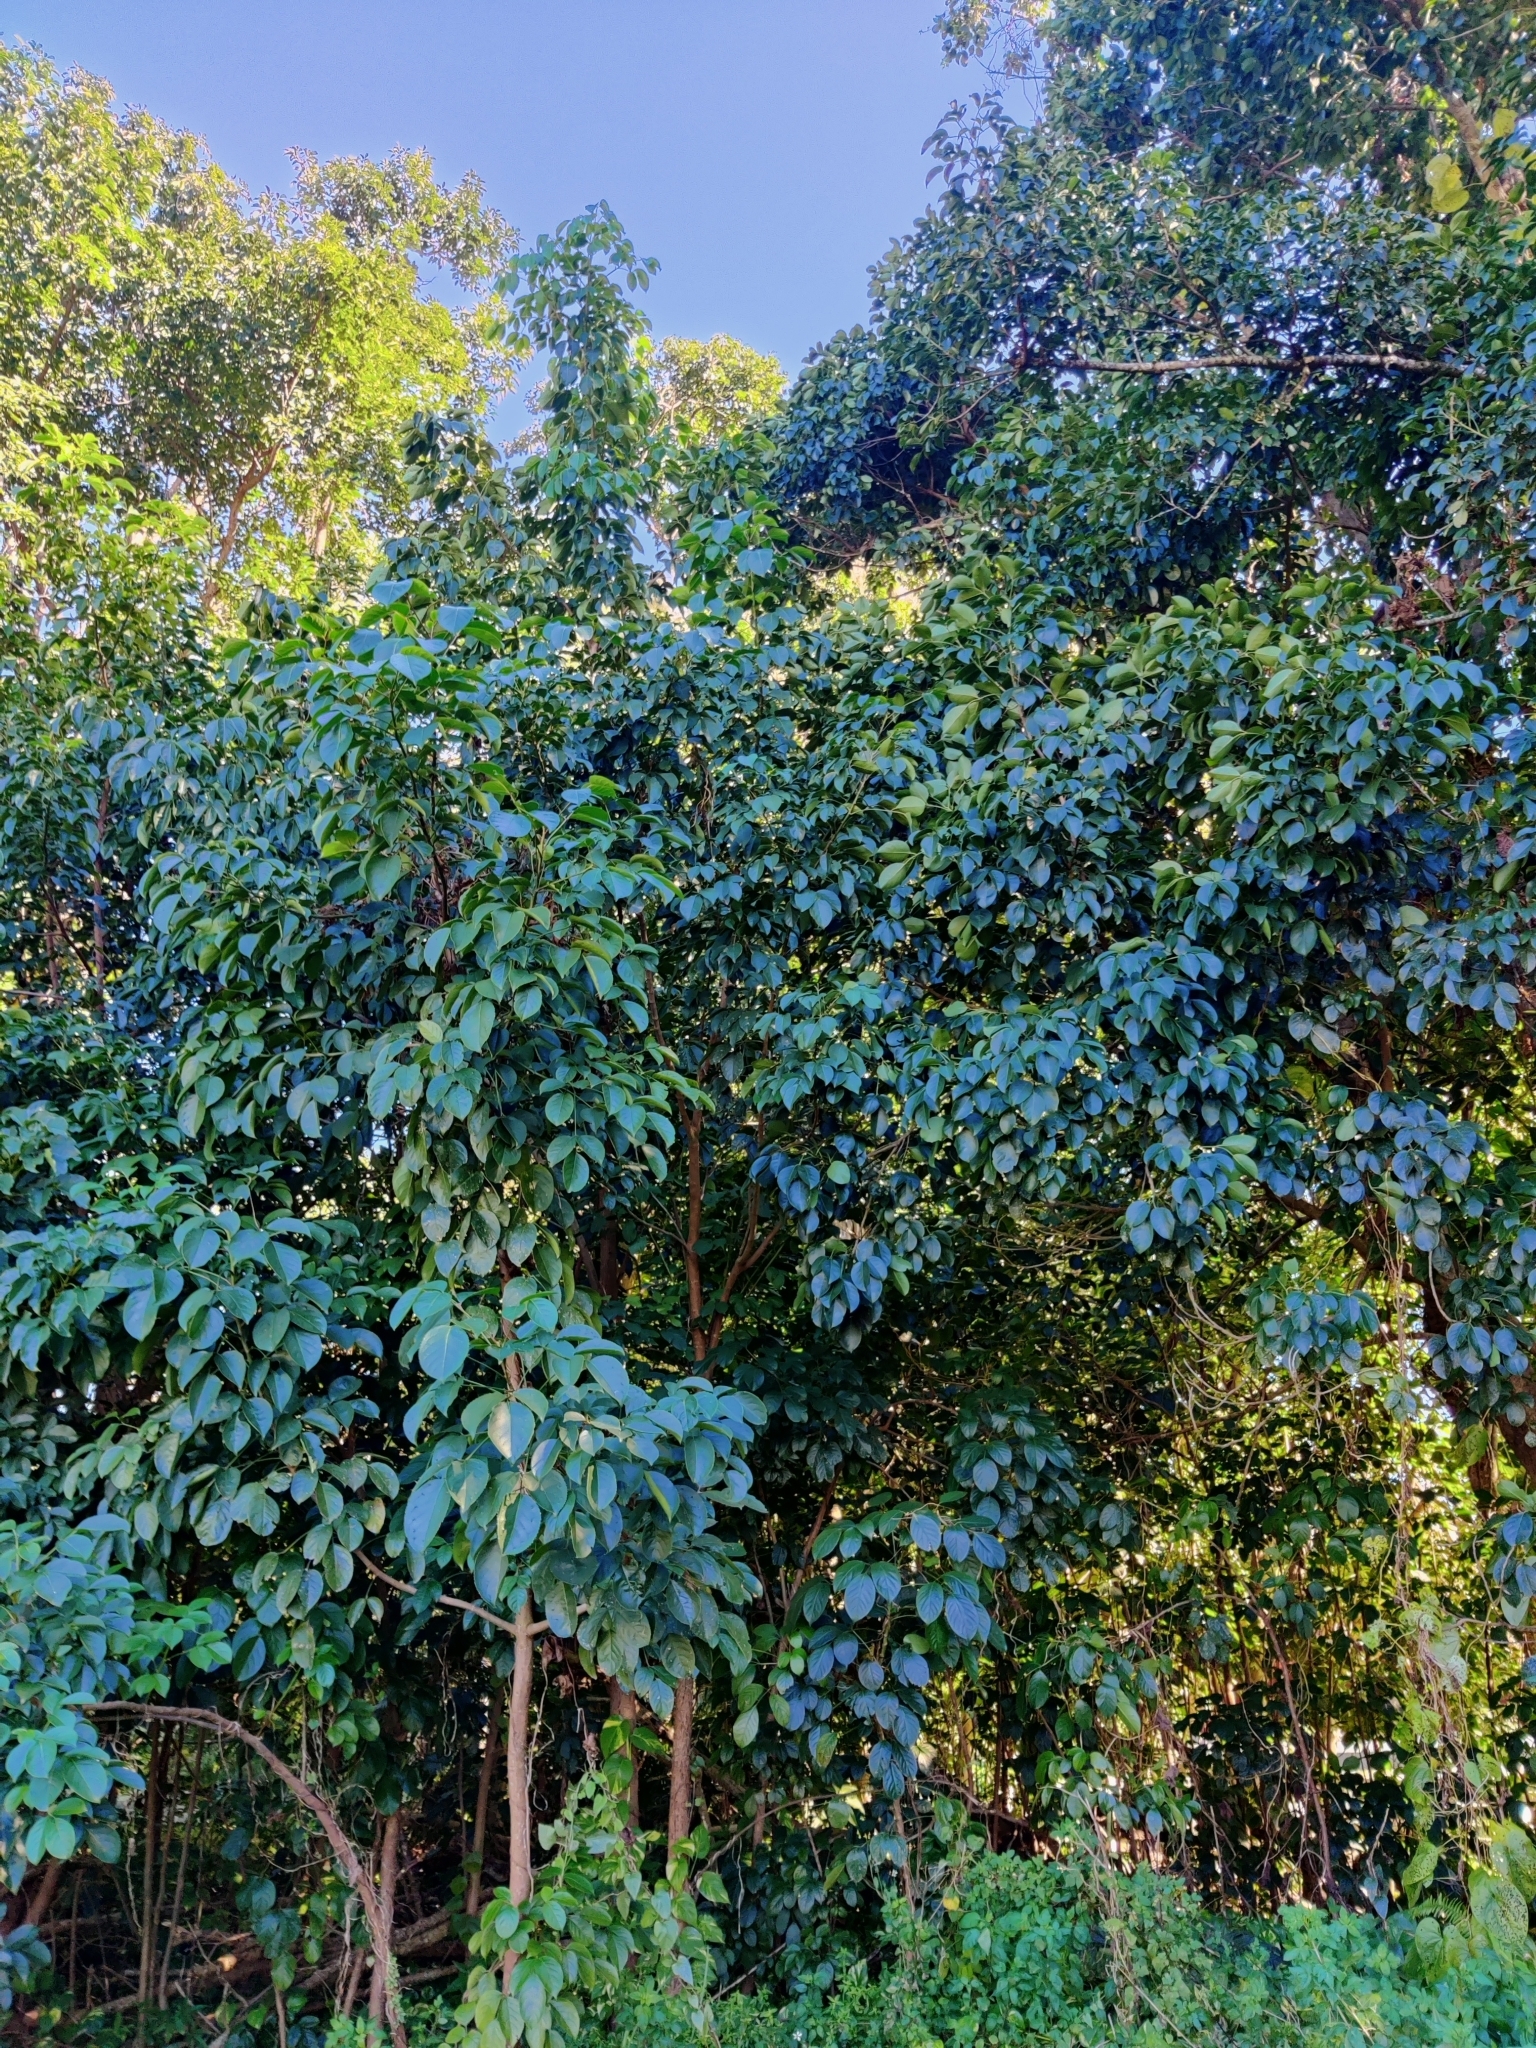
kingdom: Plantae
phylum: Tracheophyta
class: Magnoliopsida
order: Malpighiales
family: Phyllanthaceae
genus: Bischofia
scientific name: Bischofia javanica
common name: Javanese bishopwood
